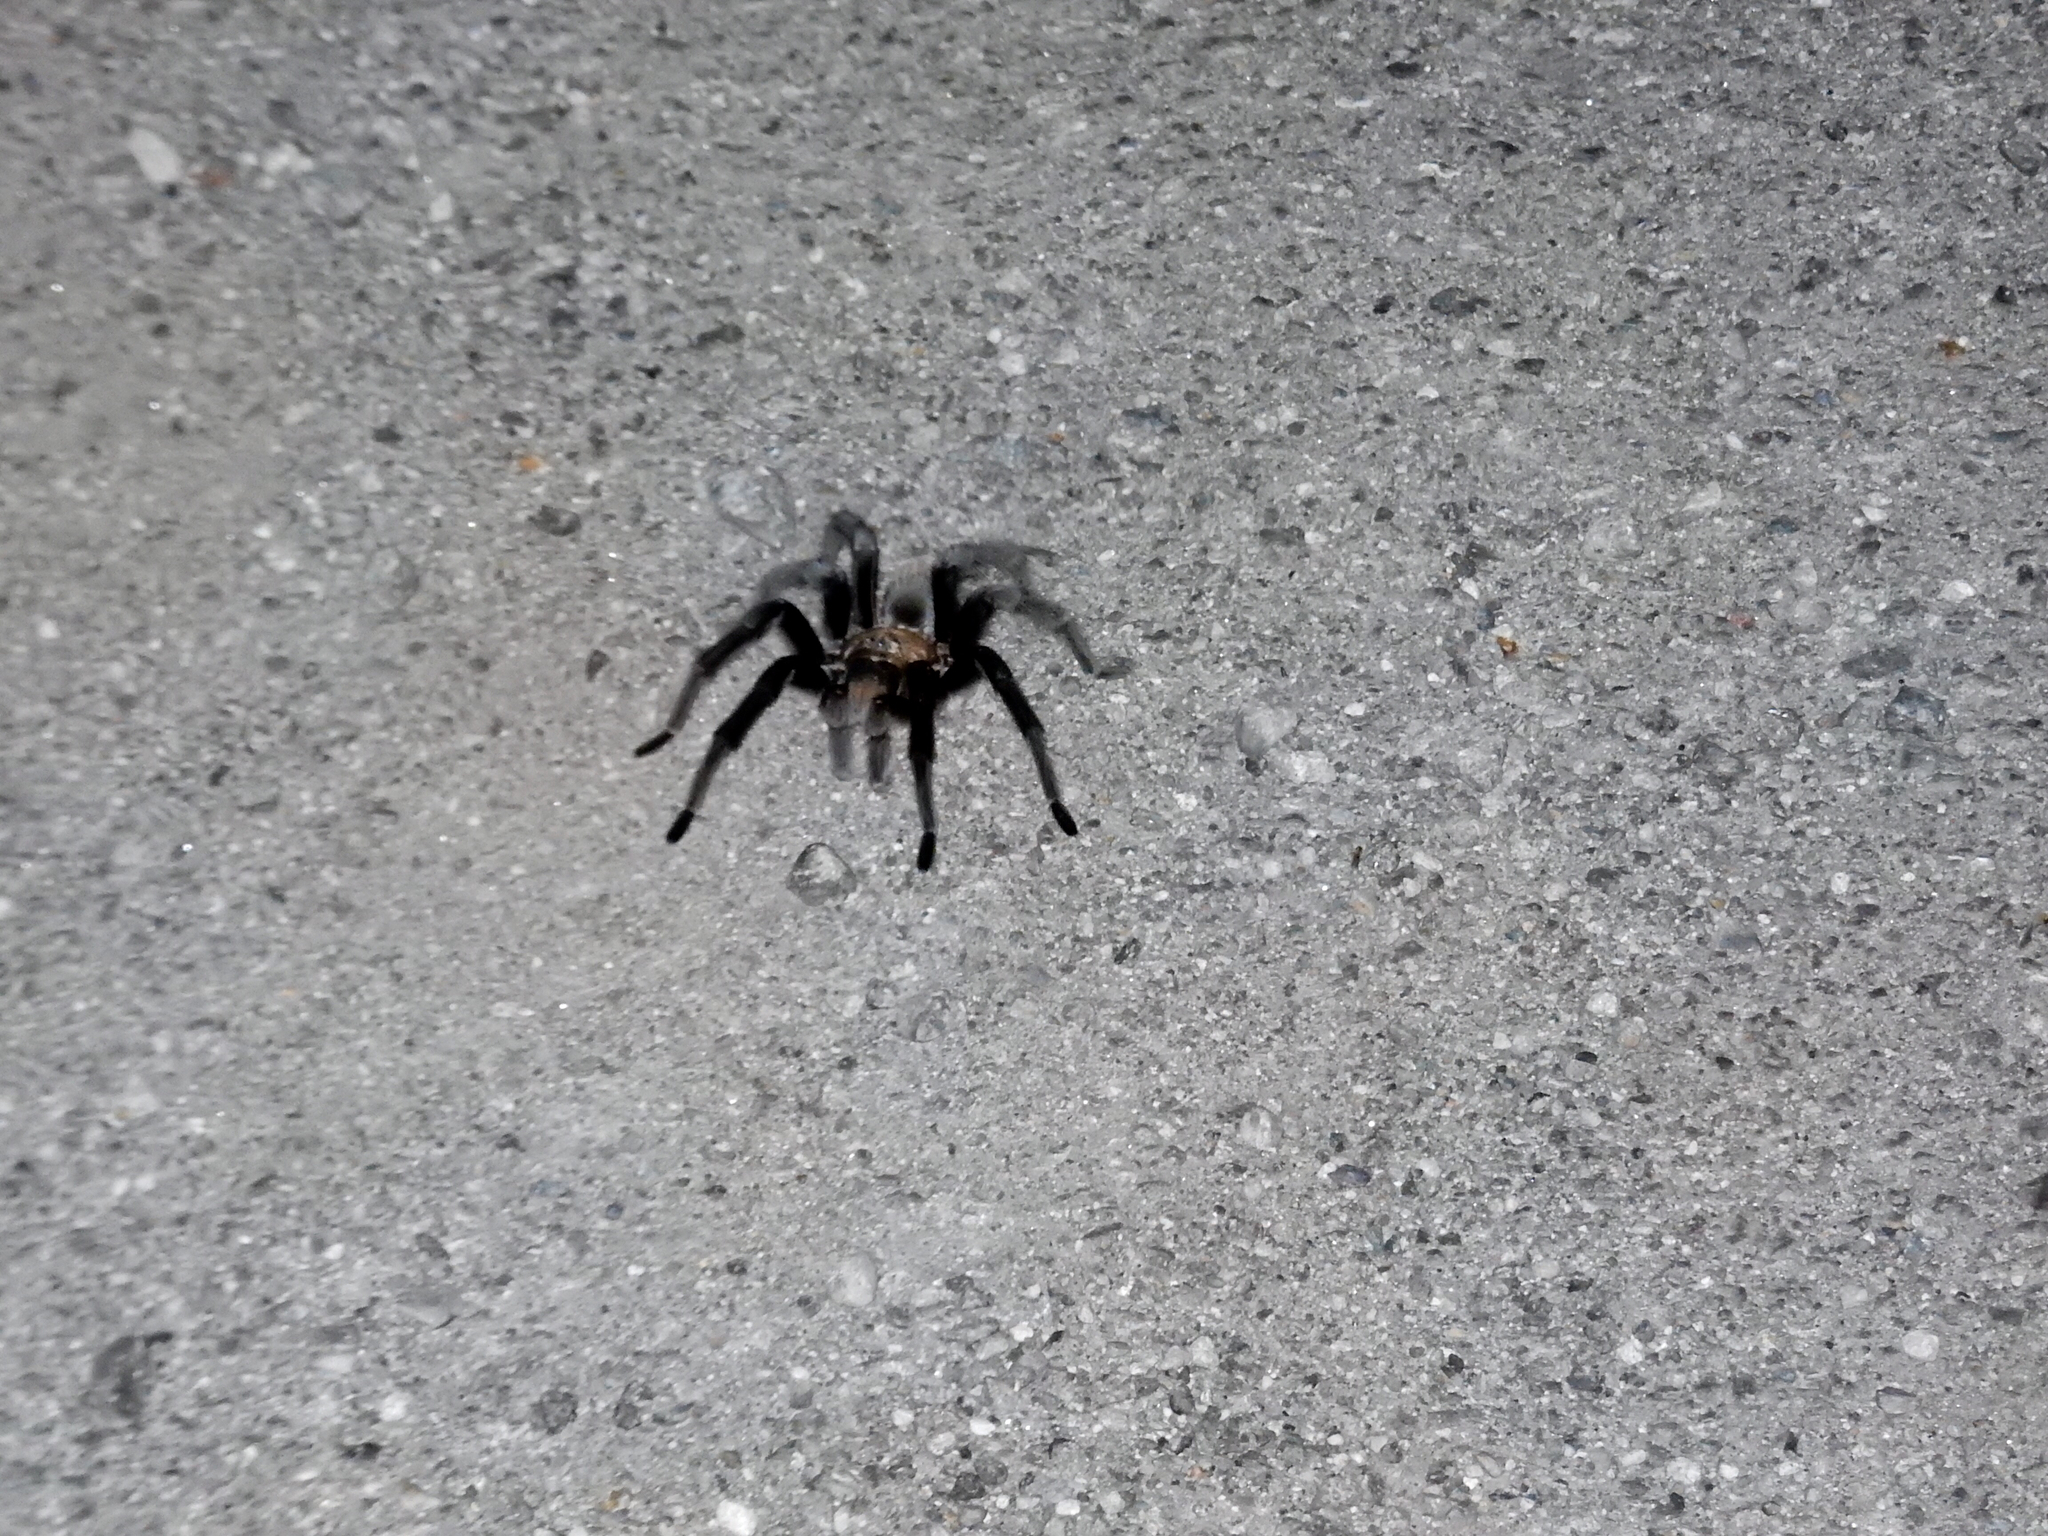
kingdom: Animalia
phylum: Arthropoda
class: Arachnida
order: Araneae
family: Theraphosidae
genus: Aphonopelma
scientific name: Aphonopelma chalcodes
